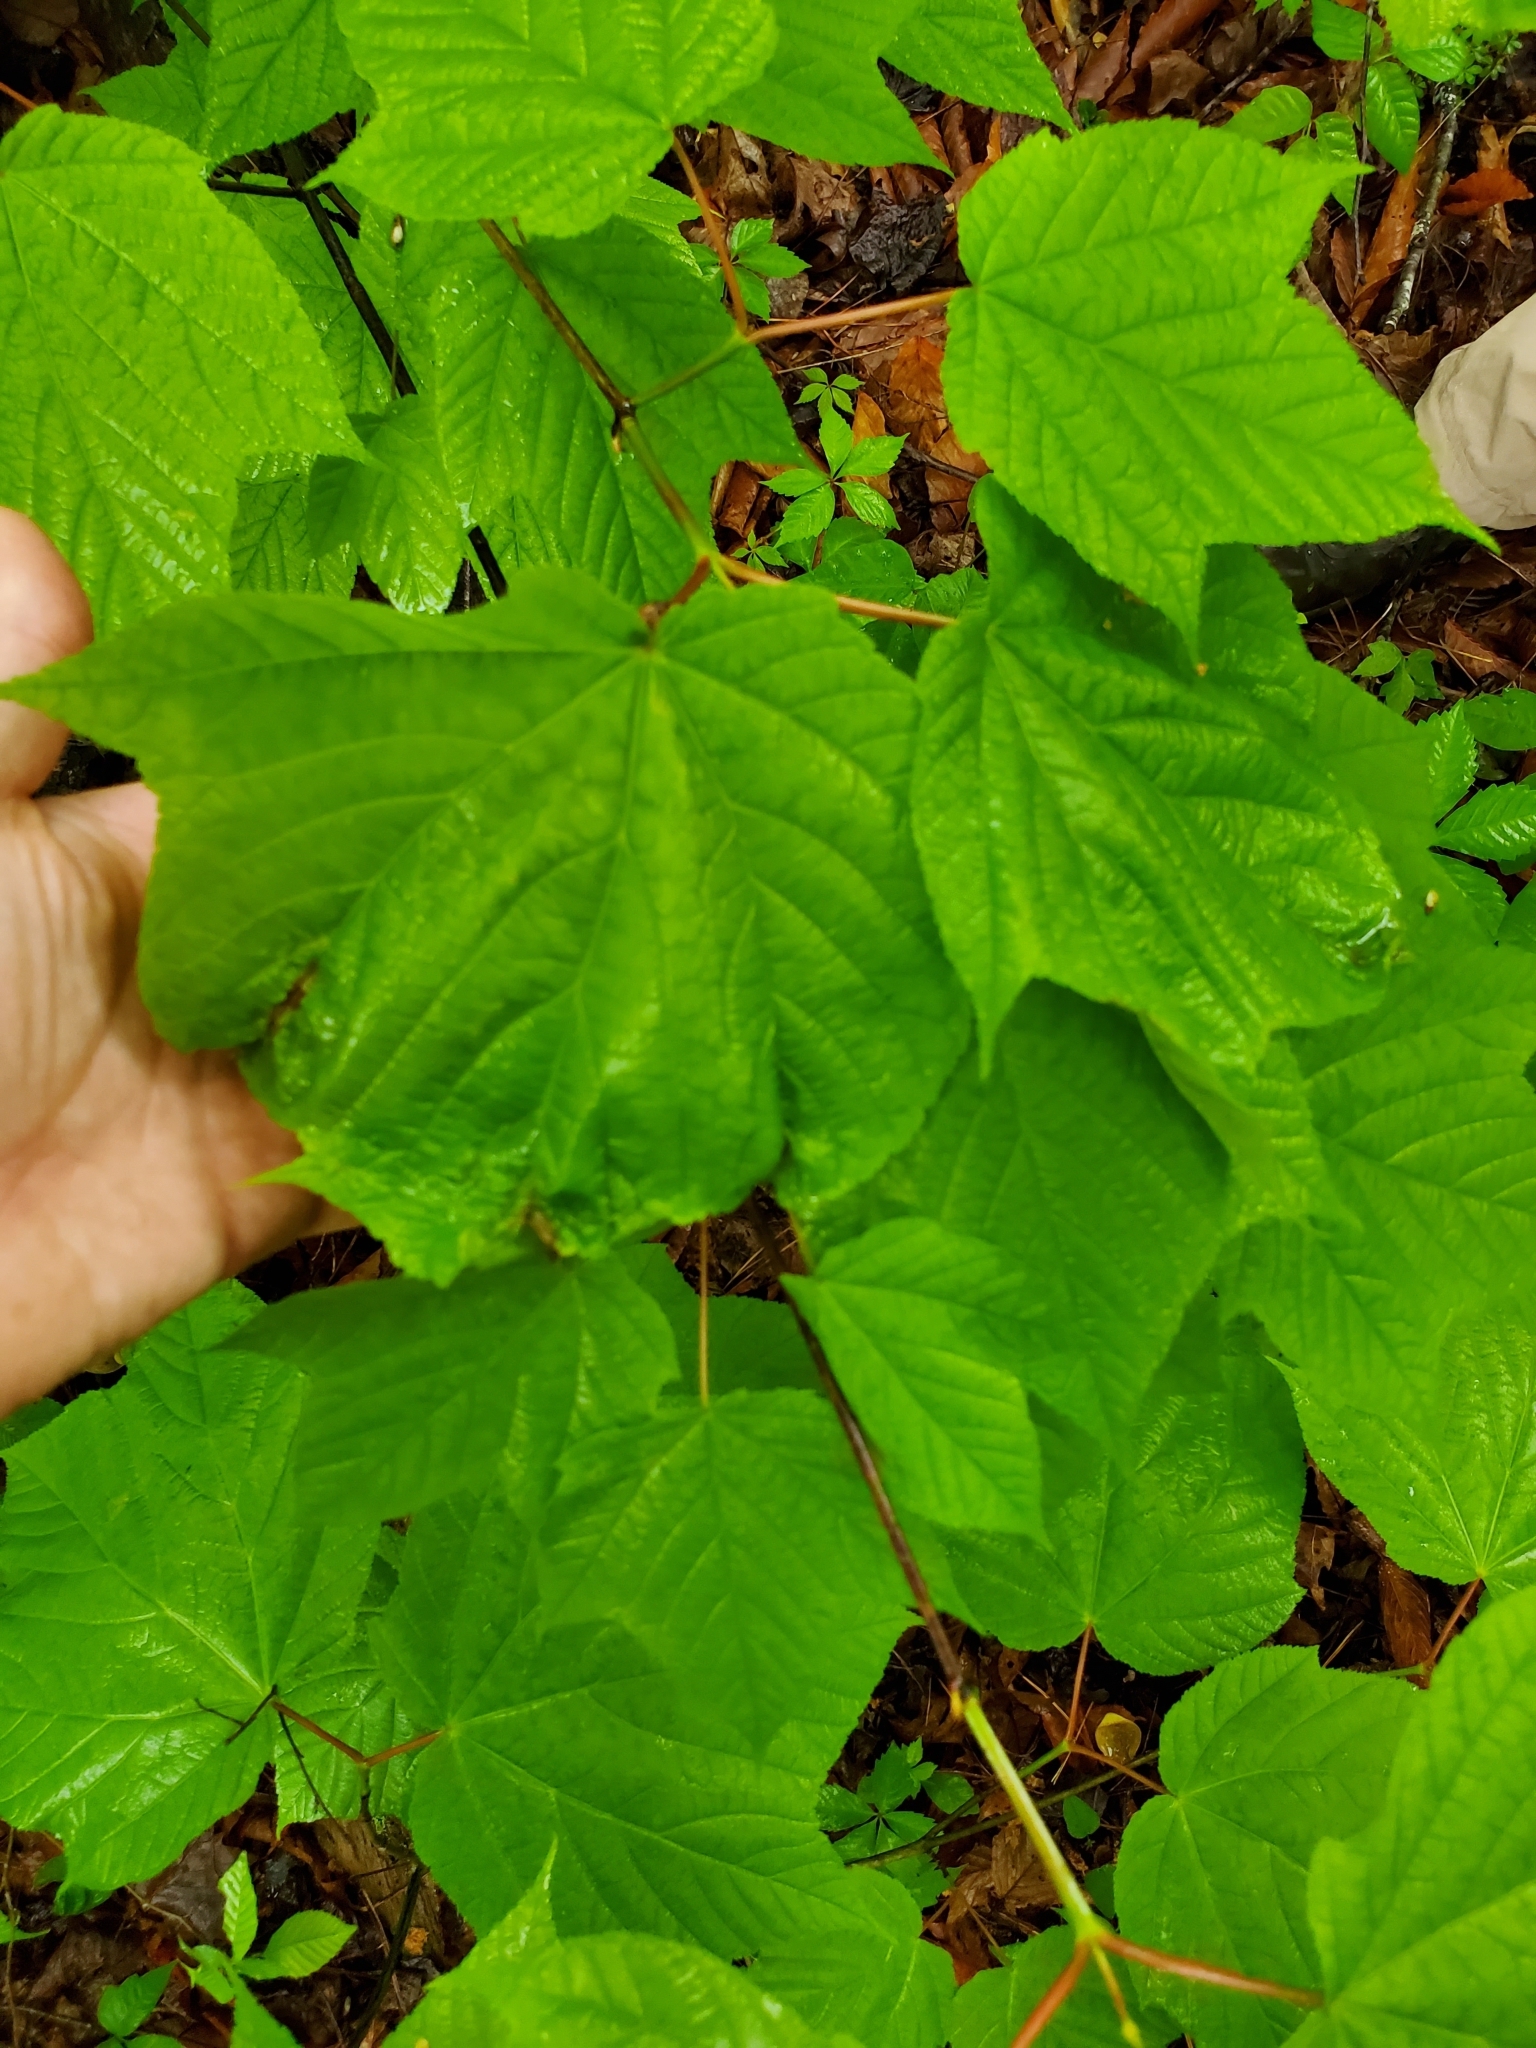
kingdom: Plantae
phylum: Tracheophyta
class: Magnoliopsida
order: Sapindales
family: Sapindaceae
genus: Acer
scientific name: Acer pensylvanicum
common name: Moosewood
